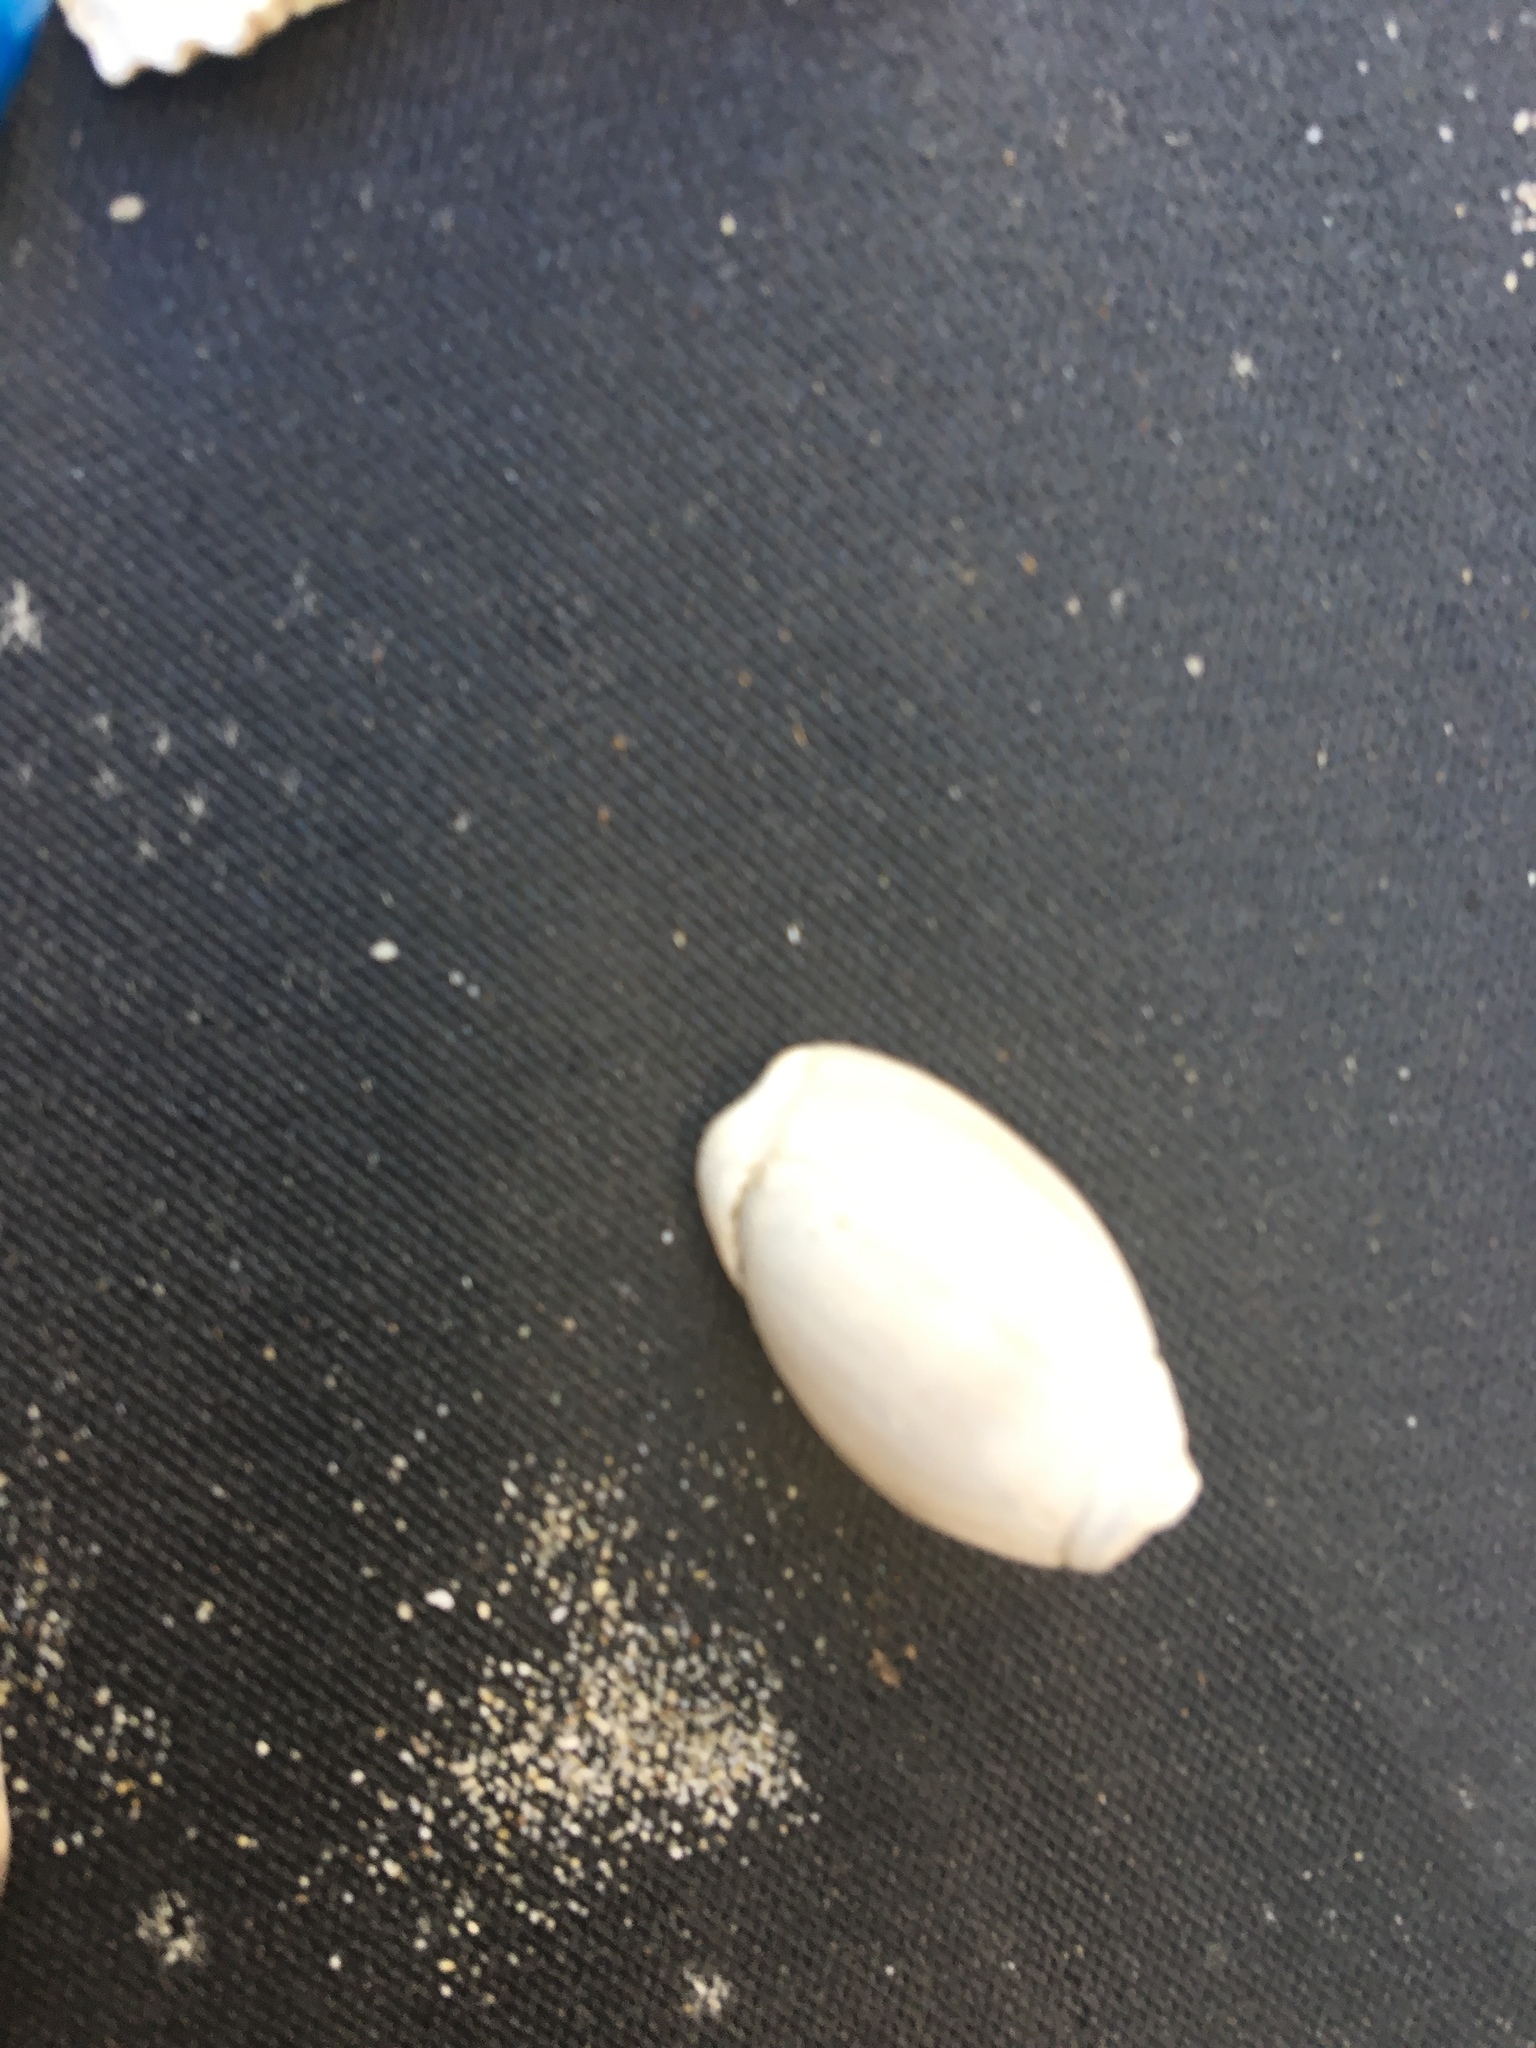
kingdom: Animalia
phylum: Mollusca
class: Gastropoda
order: Neogastropoda
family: Olividae
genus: Callianax
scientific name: Callianax biplicata
